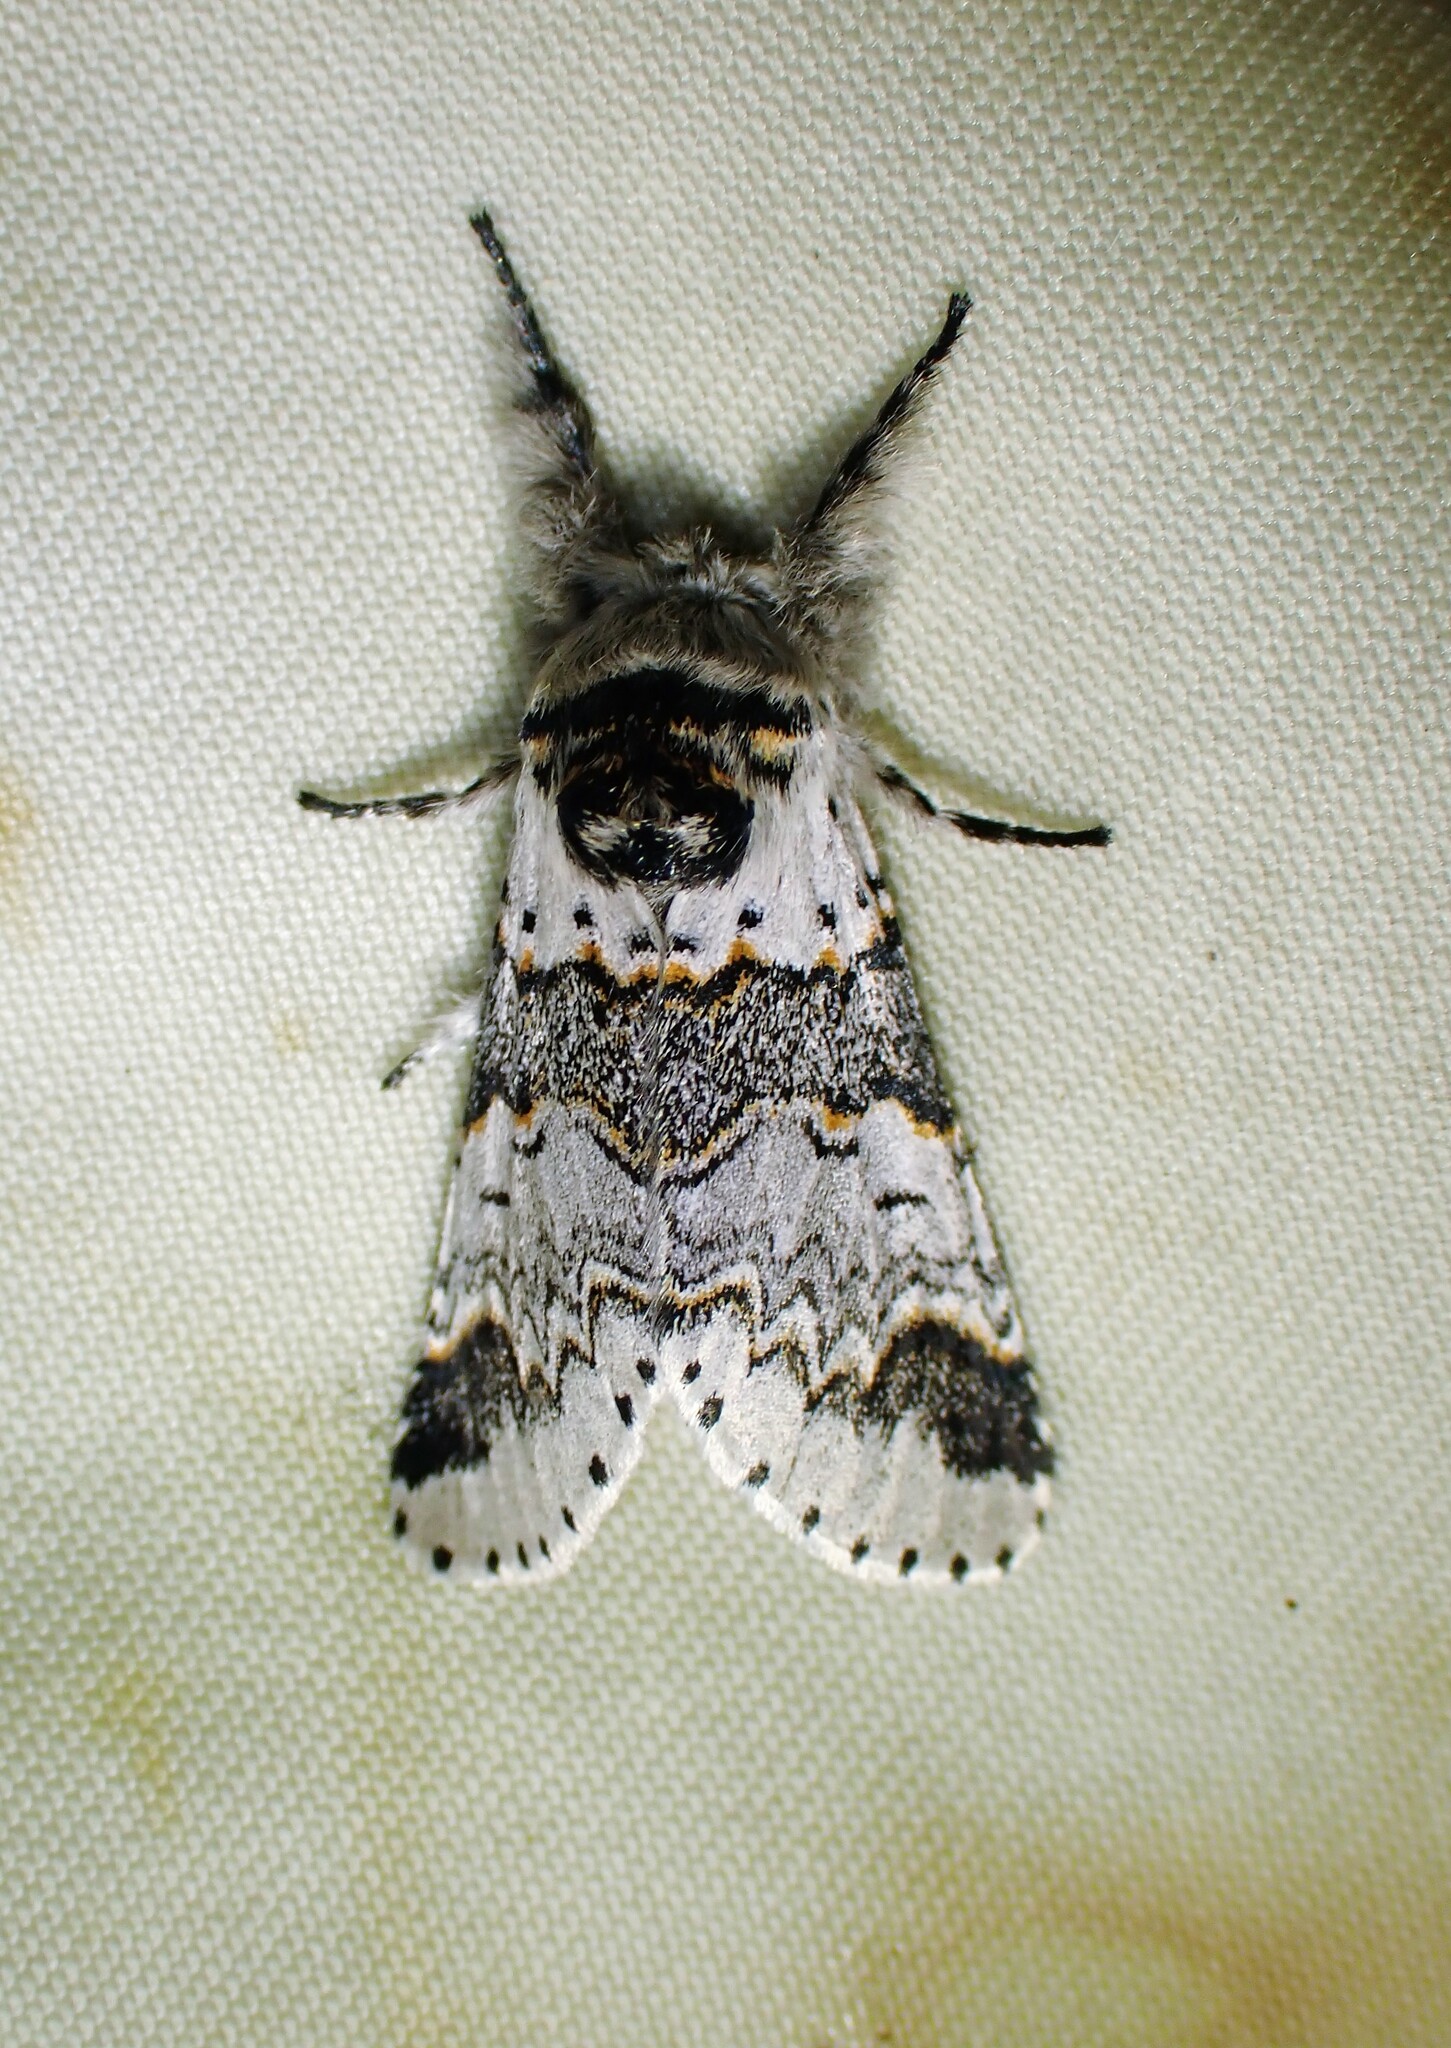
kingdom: Animalia
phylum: Arthropoda
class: Insecta
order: Lepidoptera
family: Notodontidae
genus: Furcula
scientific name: Furcula occidentalis
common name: Western furcula moth
